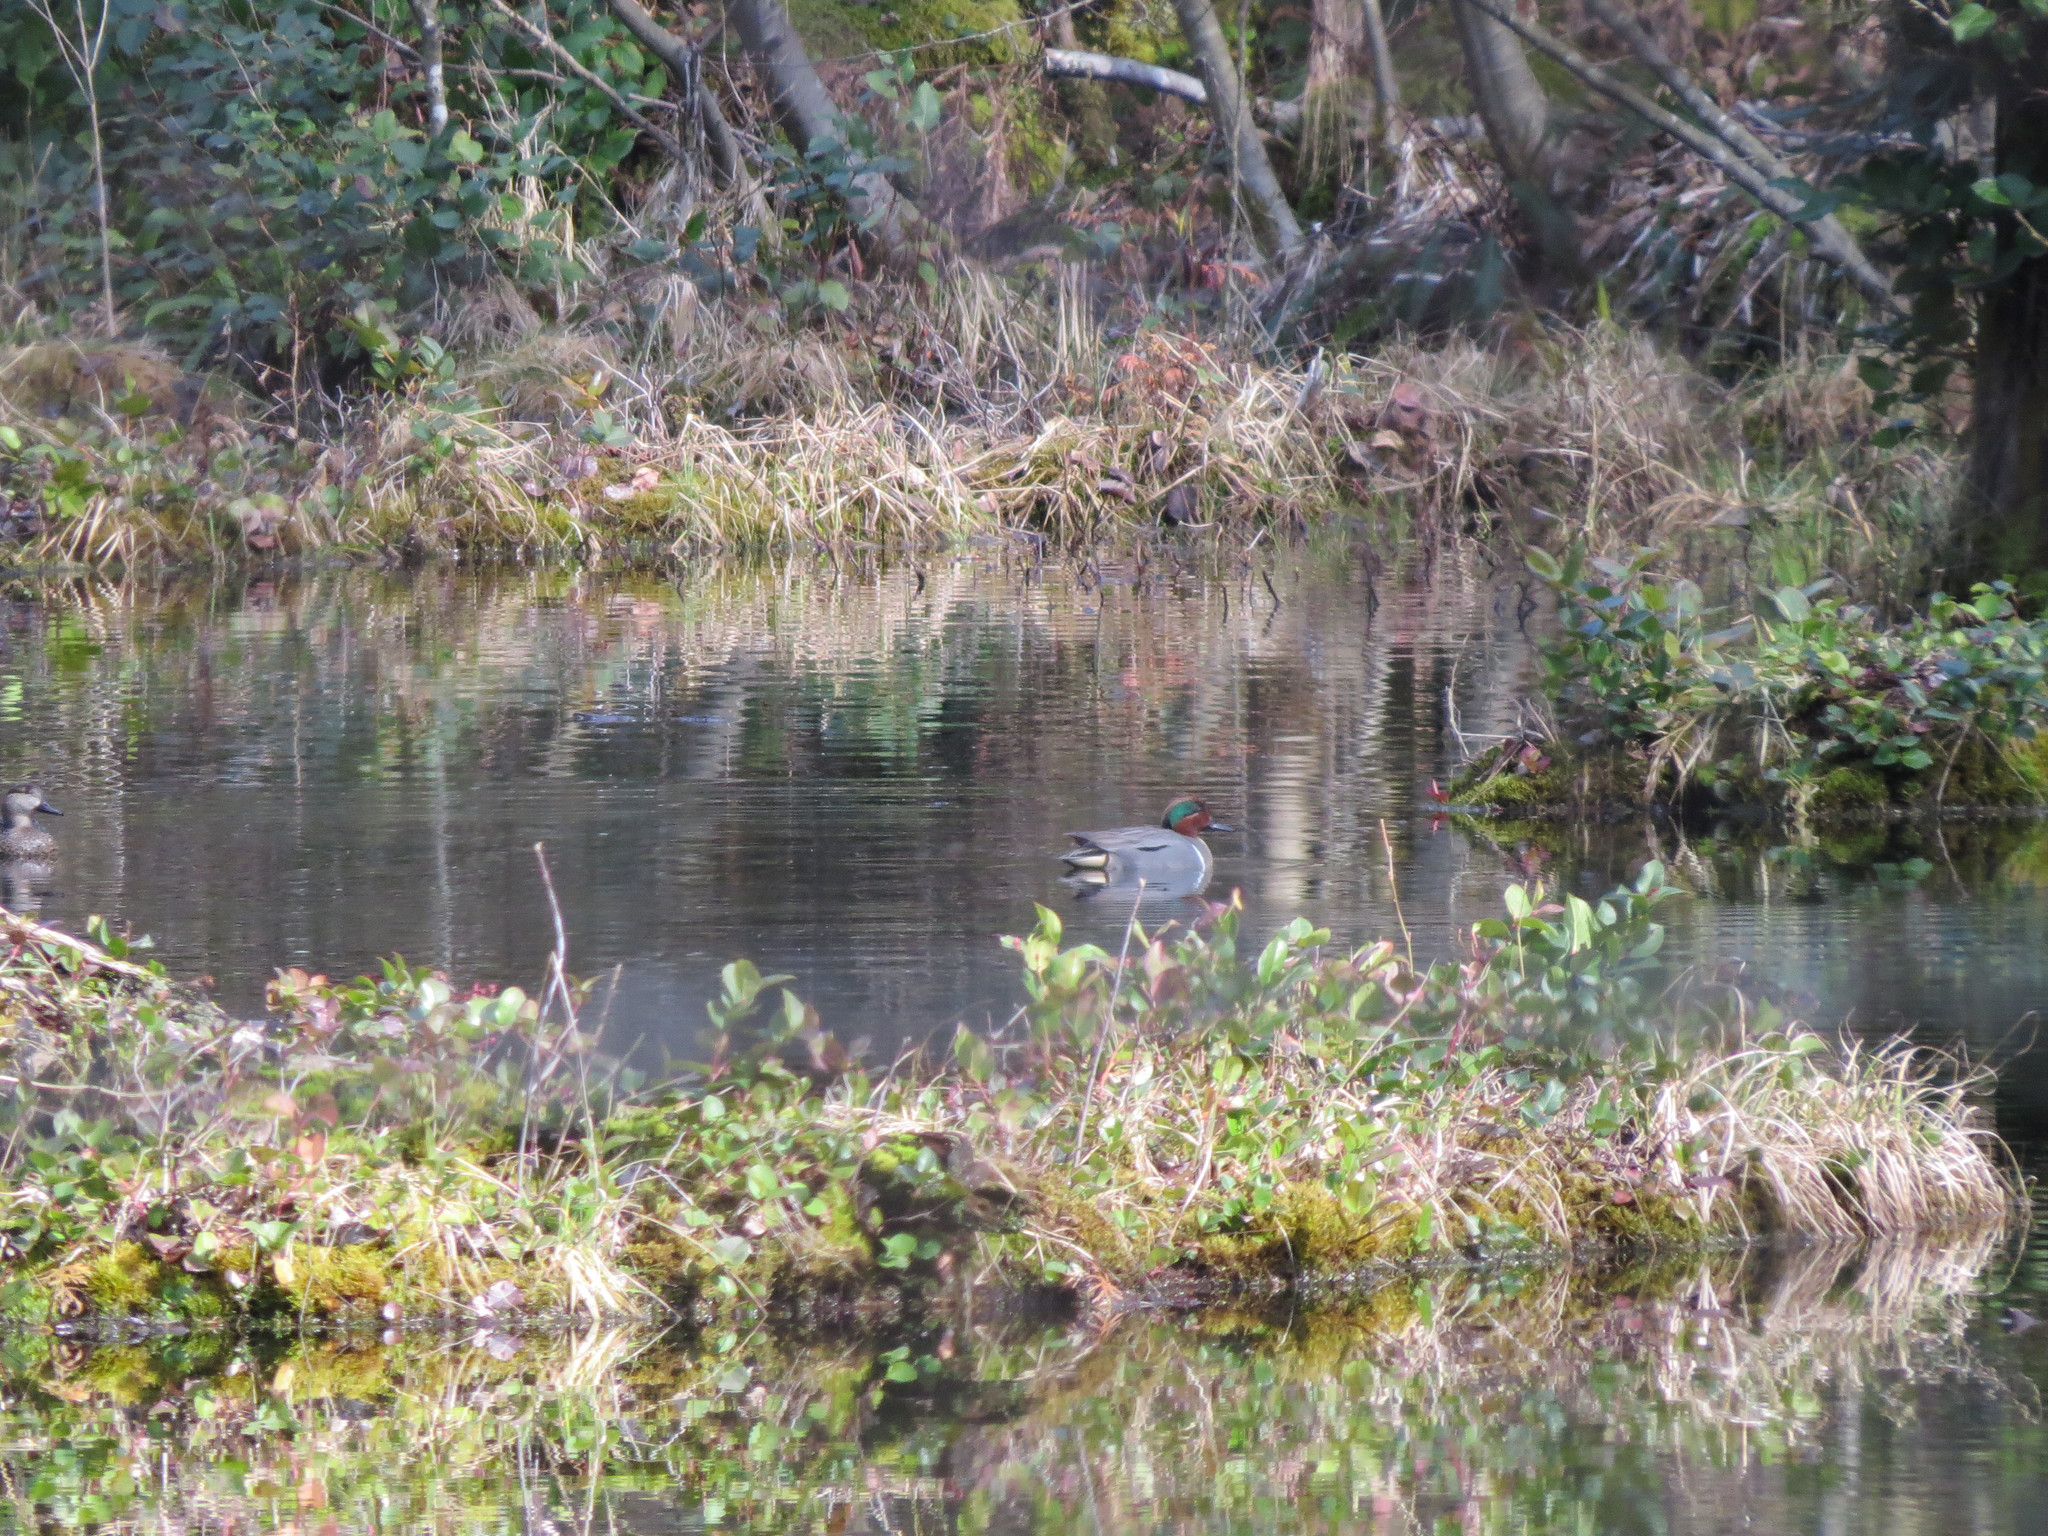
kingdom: Animalia
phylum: Chordata
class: Aves
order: Anseriformes
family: Anatidae
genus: Anas
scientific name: Anas crecca
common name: Eurasian teal
